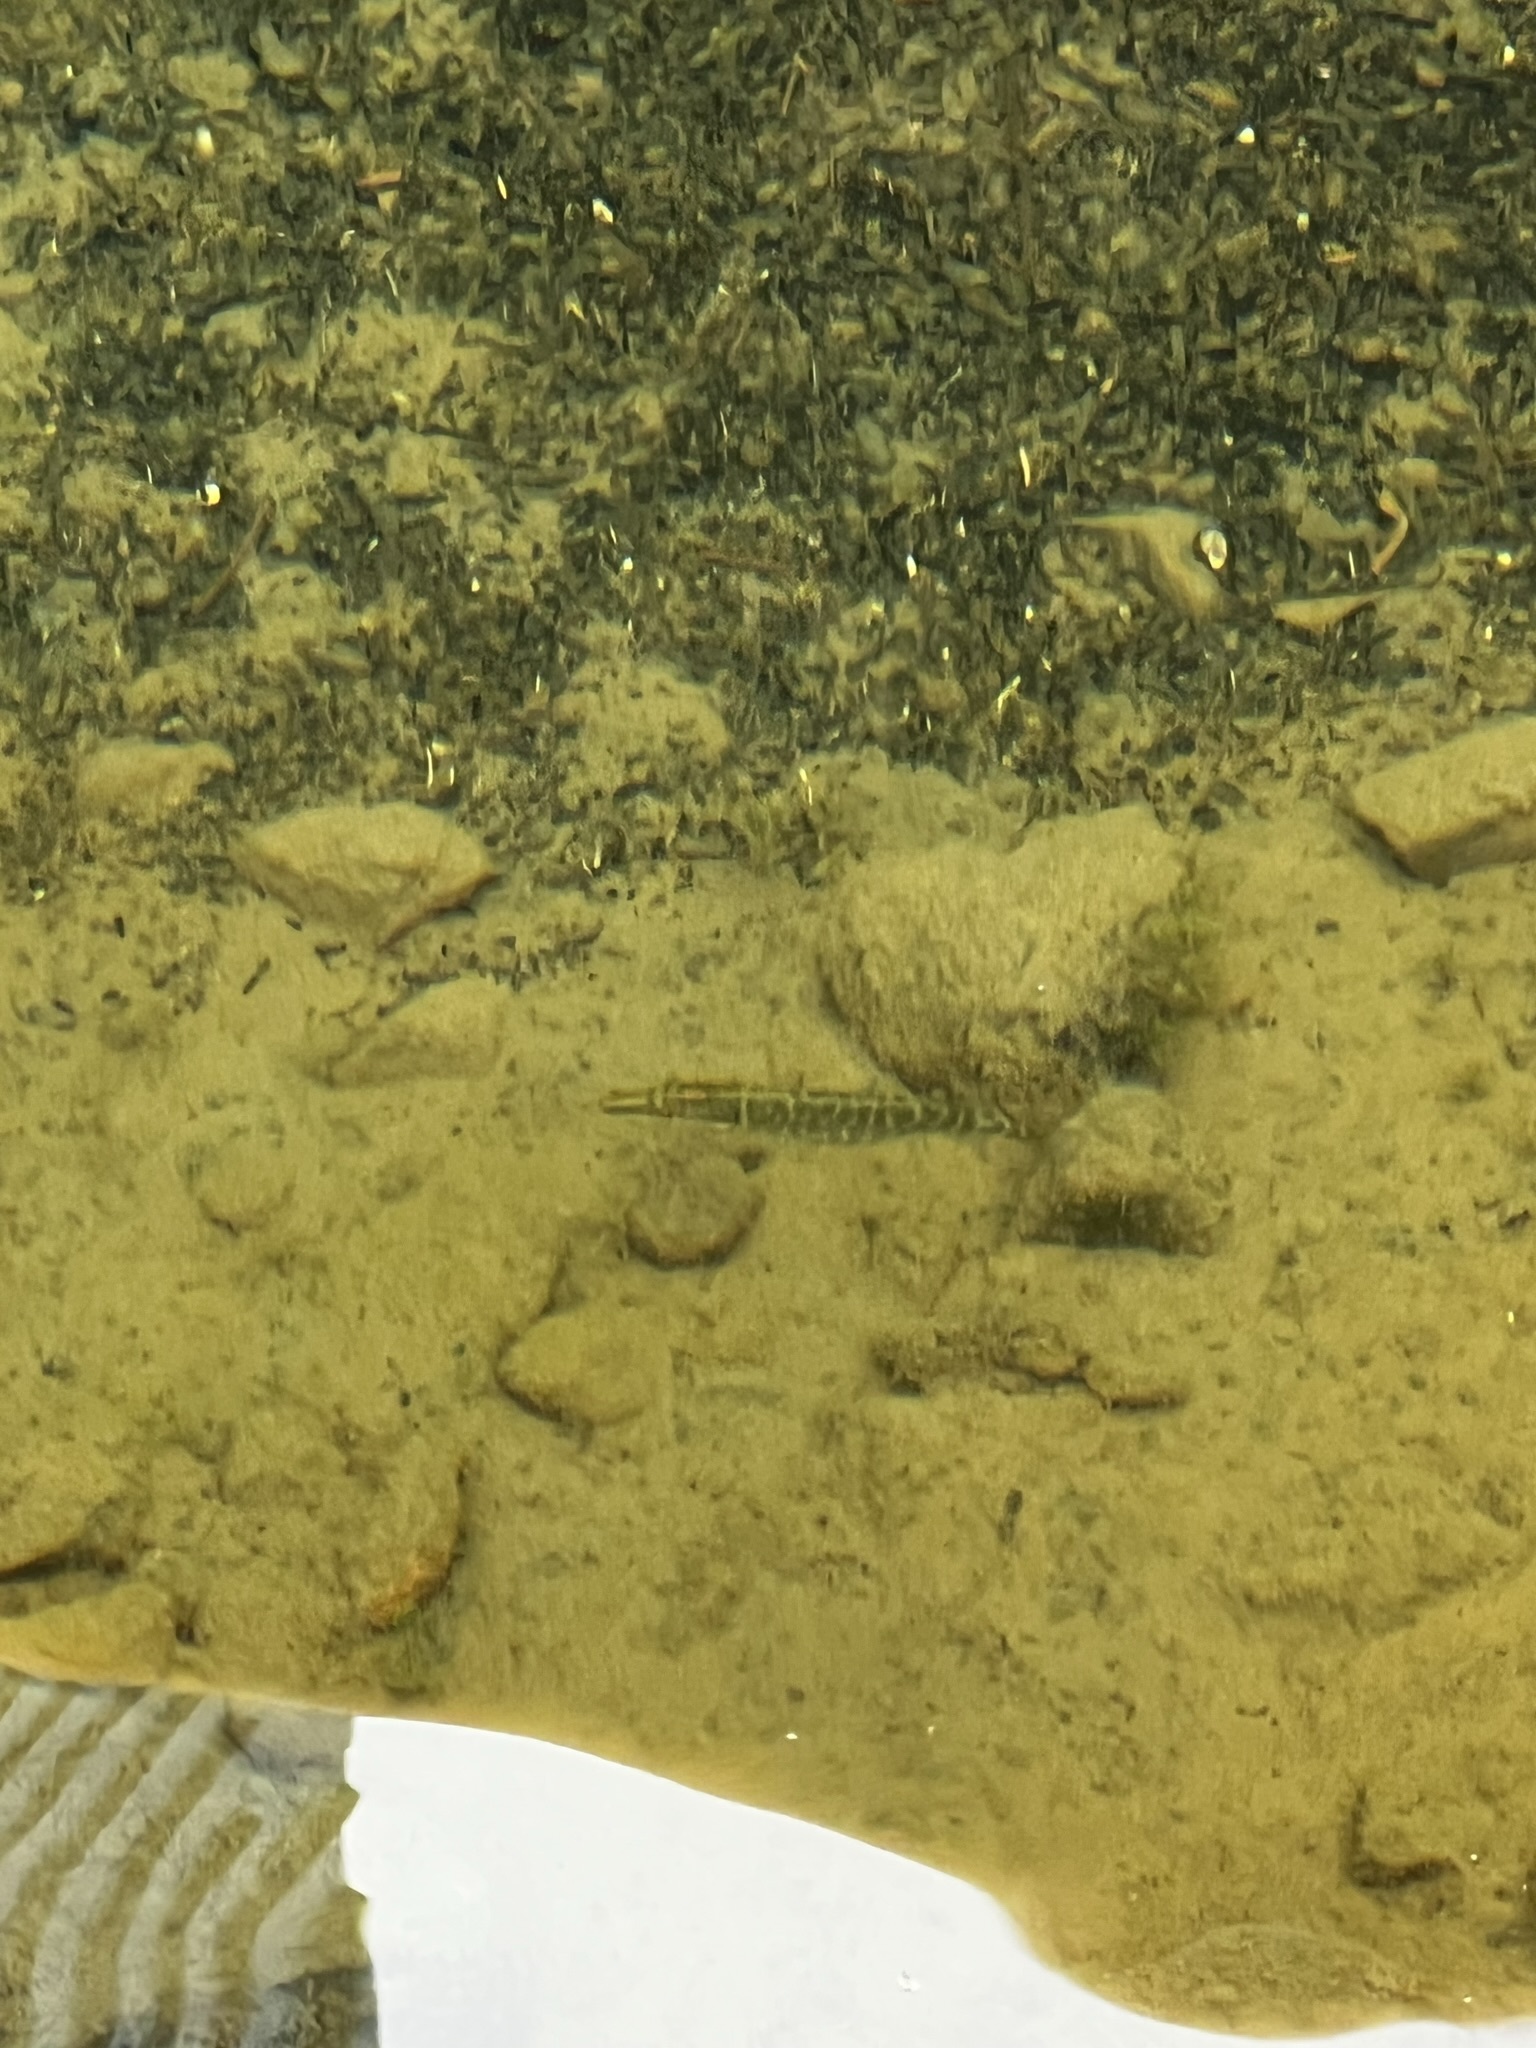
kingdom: Animalia
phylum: Chordata
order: Esociformes
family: Esocidae
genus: Esox
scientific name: Esox lucius
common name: Northern pike
